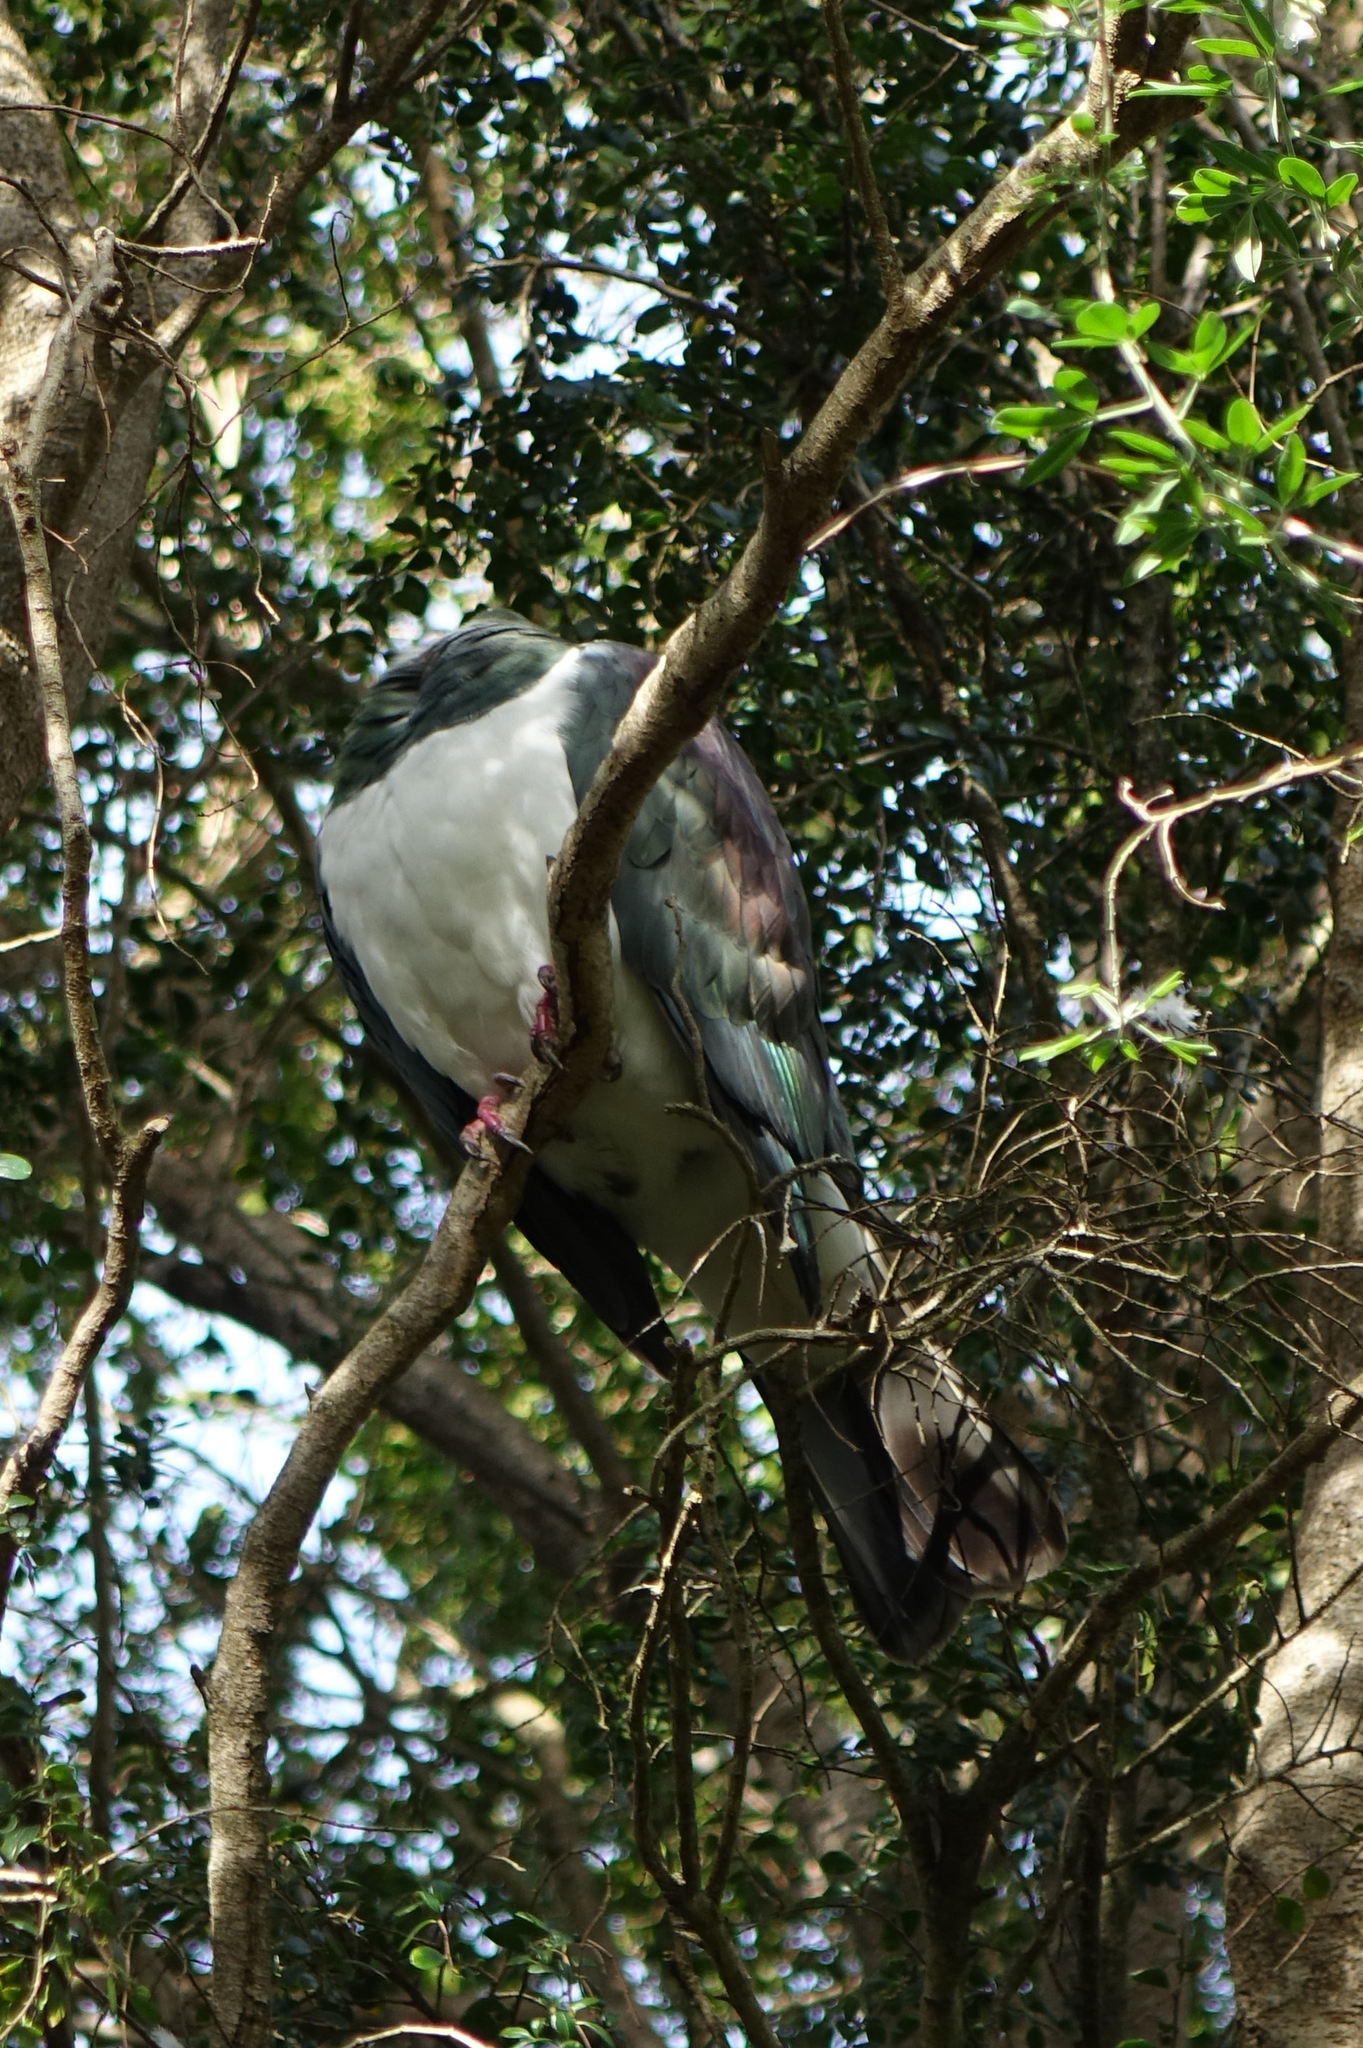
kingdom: Animalia
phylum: Chordata
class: Aves
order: Columbiformes
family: Columbidae
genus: Hemiphaga
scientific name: Hemiphaga novaeseelandiae
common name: New zealand pigeon
